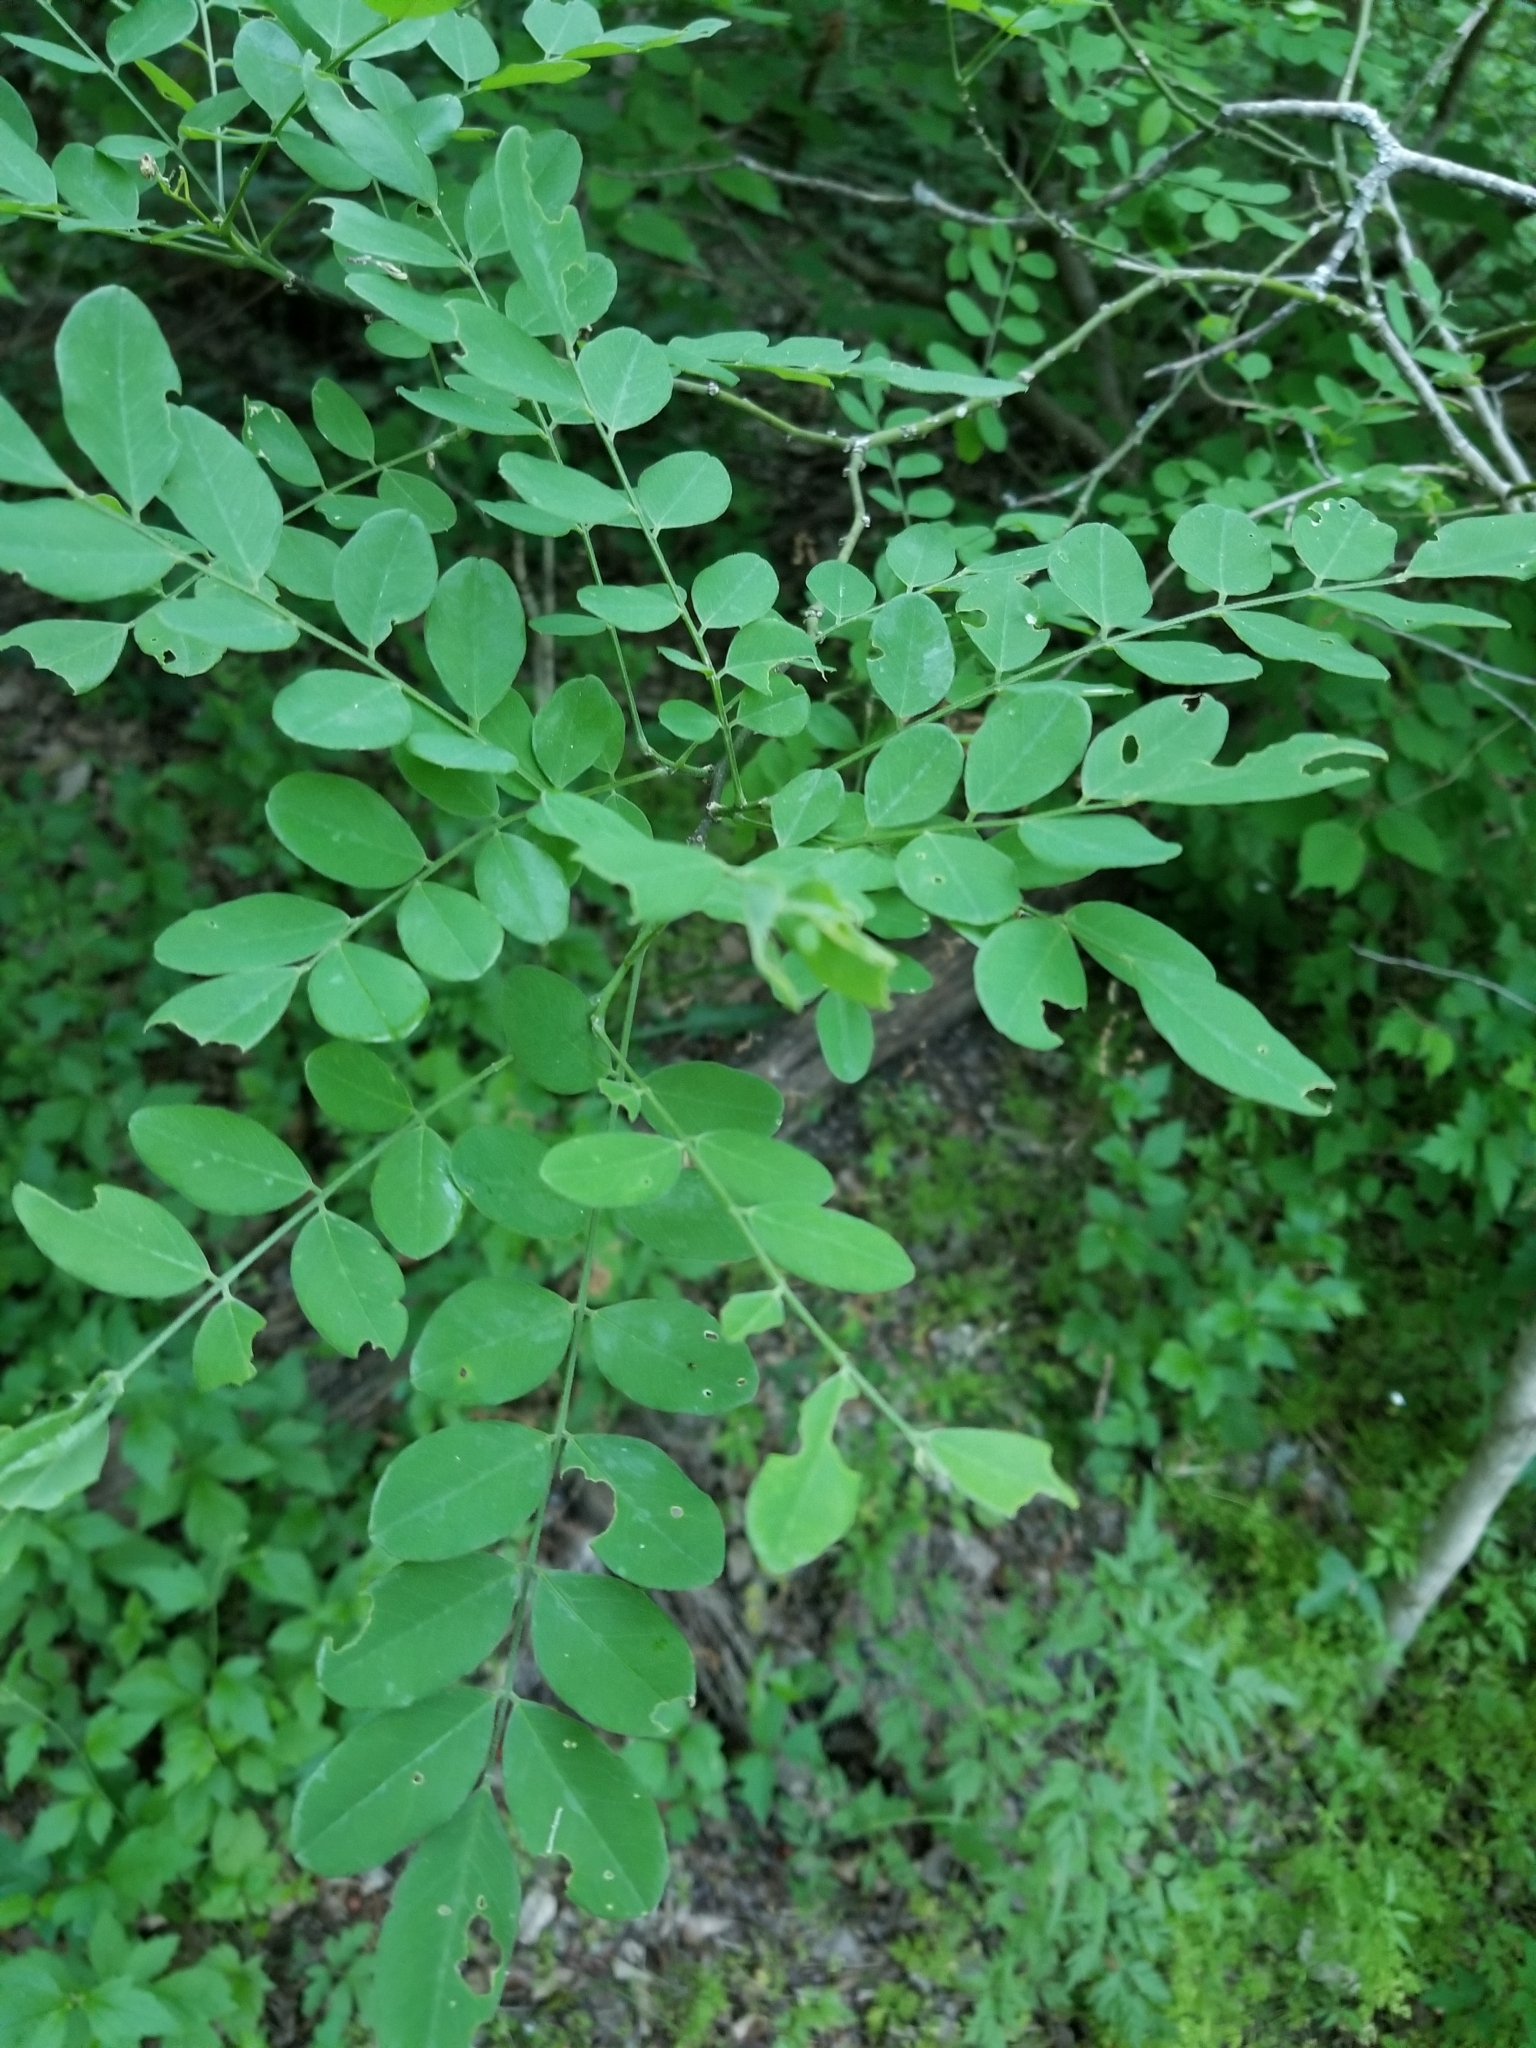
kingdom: Plantae
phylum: Tracheophyta
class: Magnoliopsida
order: Fabales
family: Fabaceae
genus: Styphnolobium
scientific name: Styphnolobium affine
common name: Texas sophora
